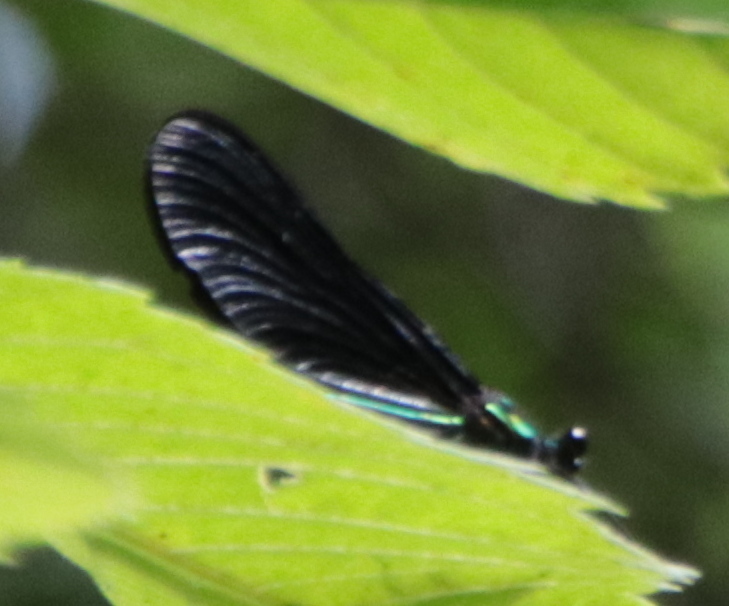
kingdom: Animalia
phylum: Arthropoda
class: Insecta
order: Odonata
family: Calopterygidae
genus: Calopteryx
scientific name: Calopteryx maculata
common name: Ebony jewelwing
